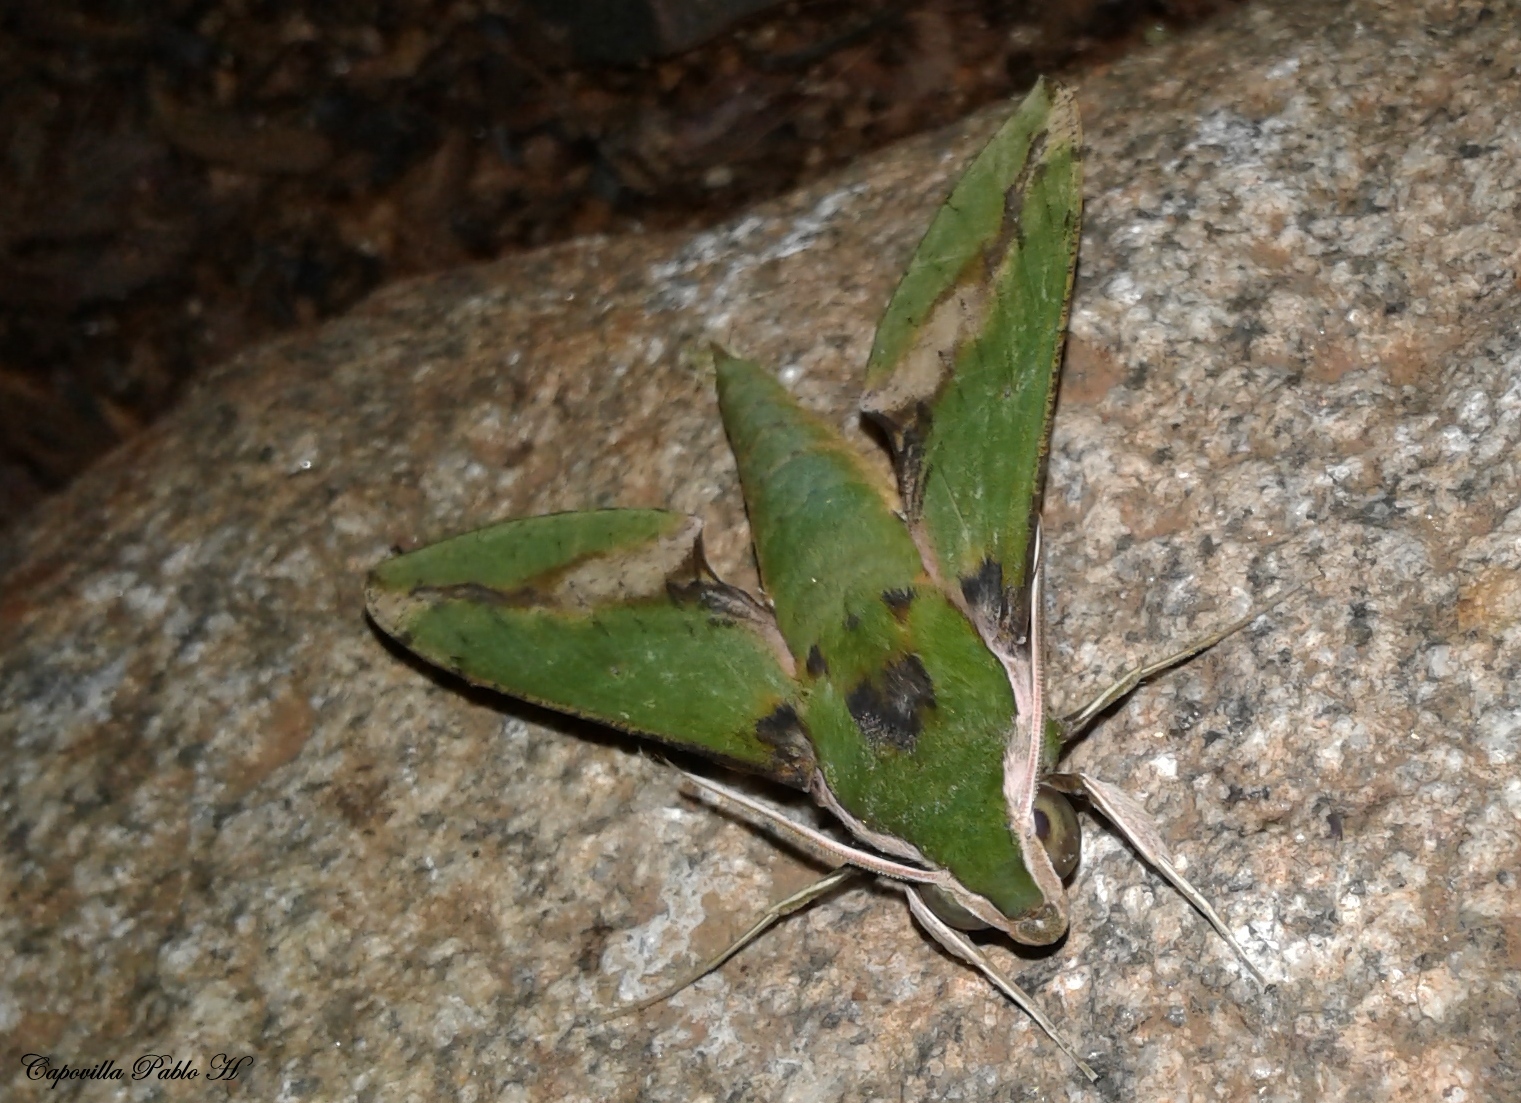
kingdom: Animalia
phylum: Arthropoda
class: Insecta
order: Lepidoptera
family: Sphingidae
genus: Xylophanes
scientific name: Xylophanes chiron
